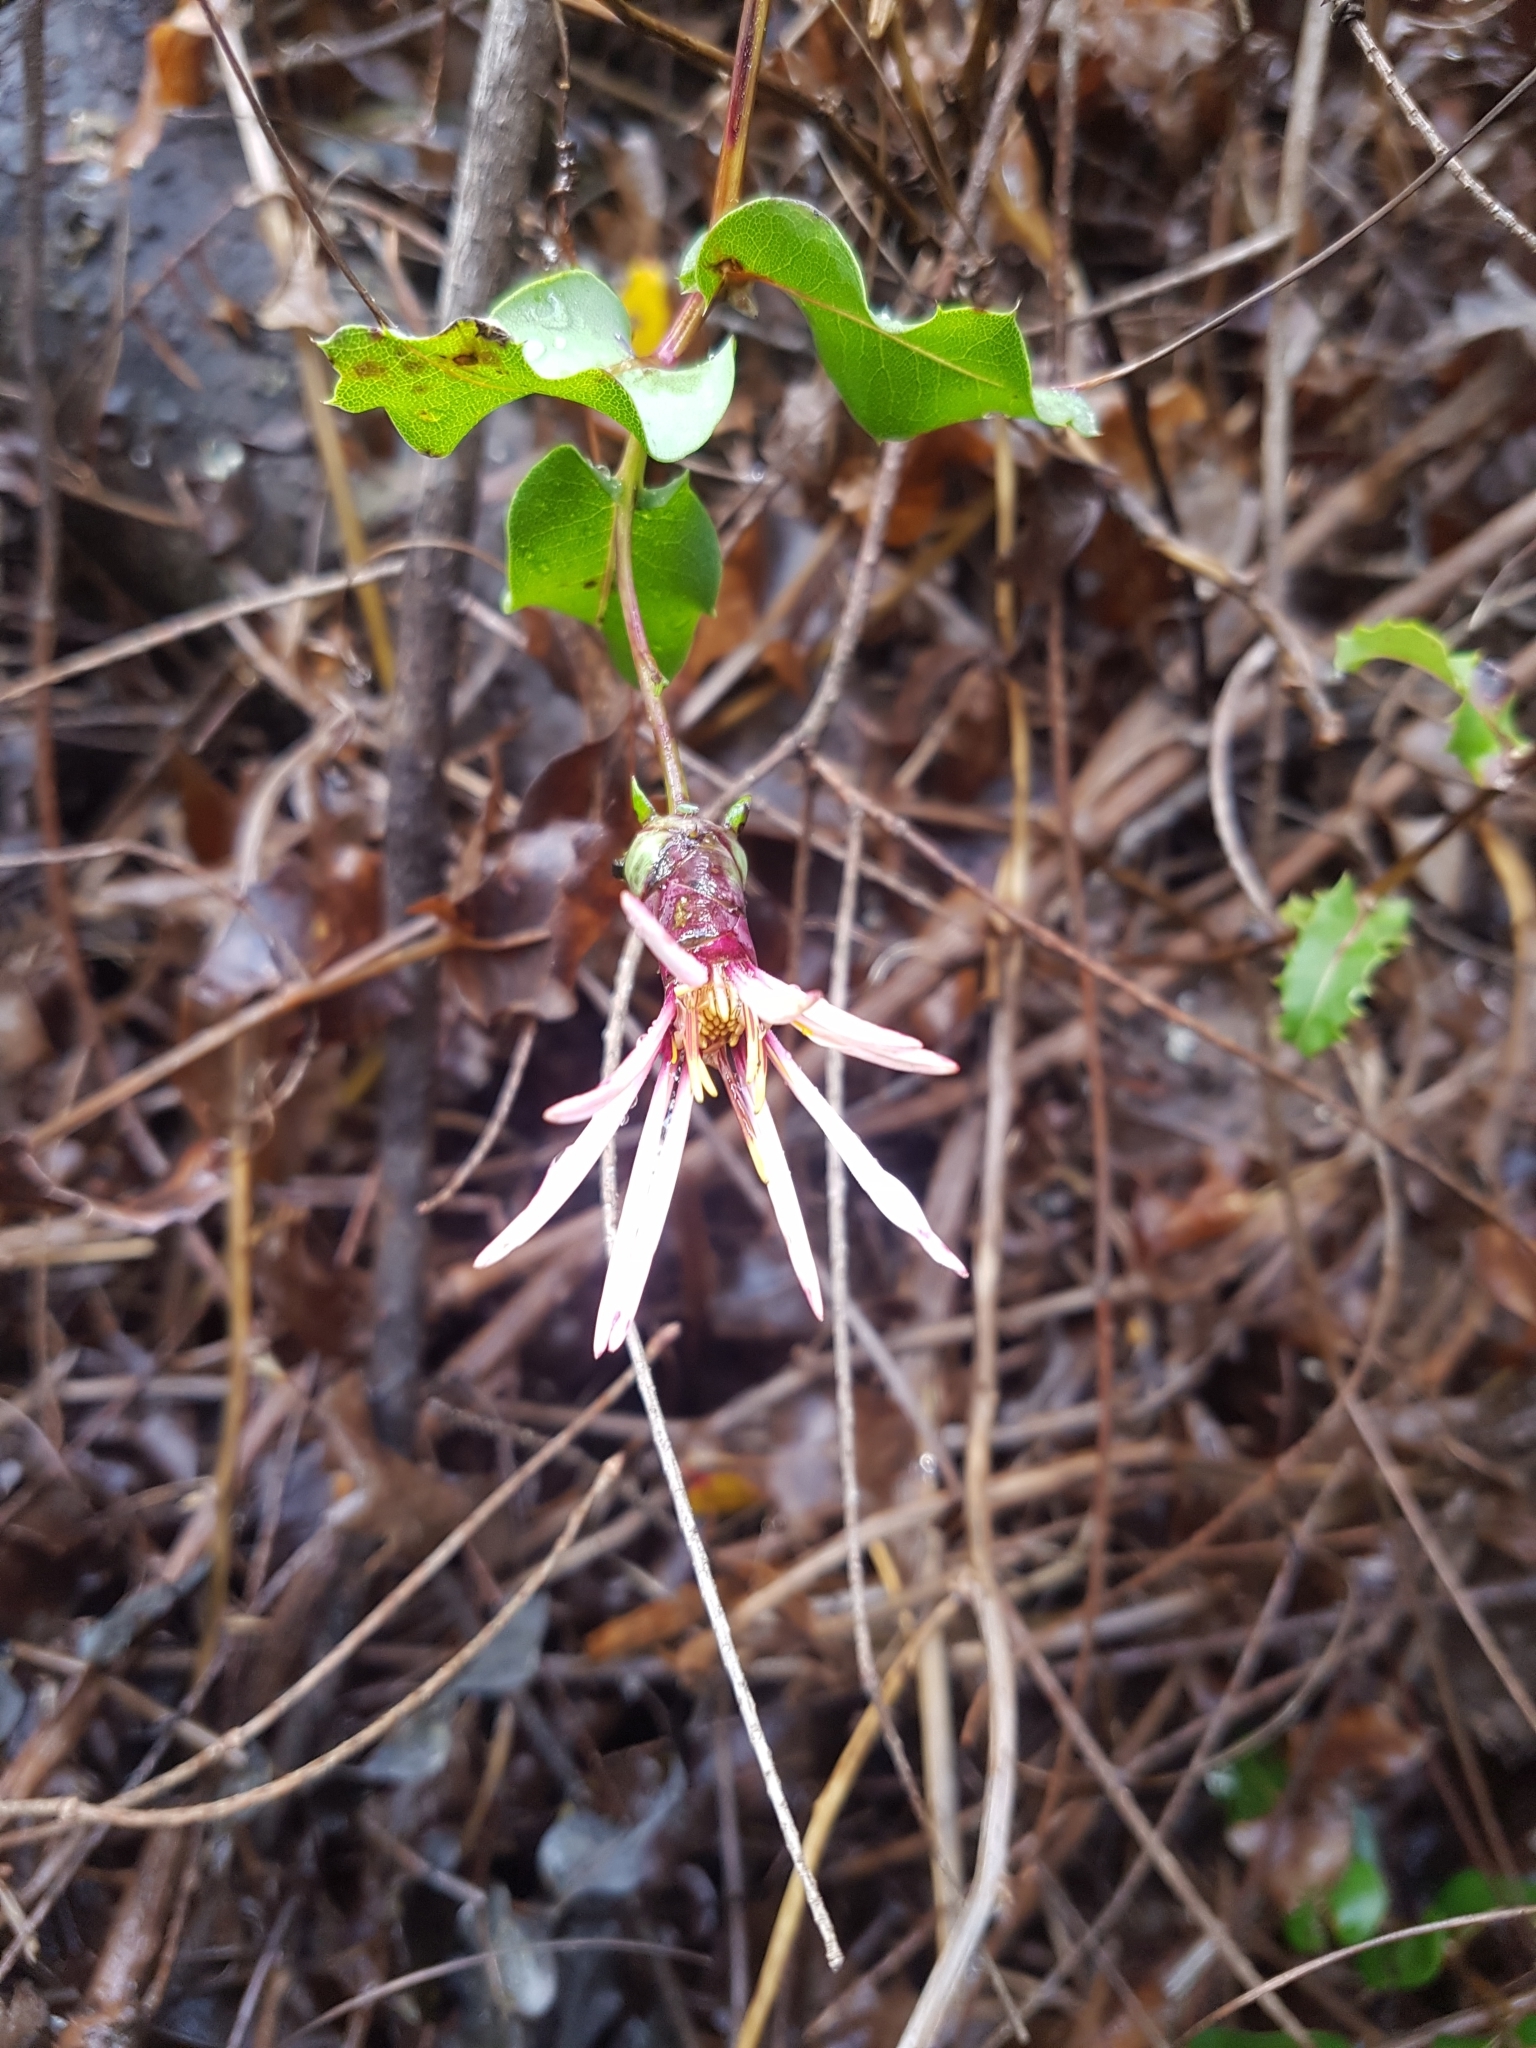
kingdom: Plantae
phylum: Tracheophyta
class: Magnoliopsida
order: Asterales
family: Asteraceae
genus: Mutisia
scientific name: Mutisia spinosa
